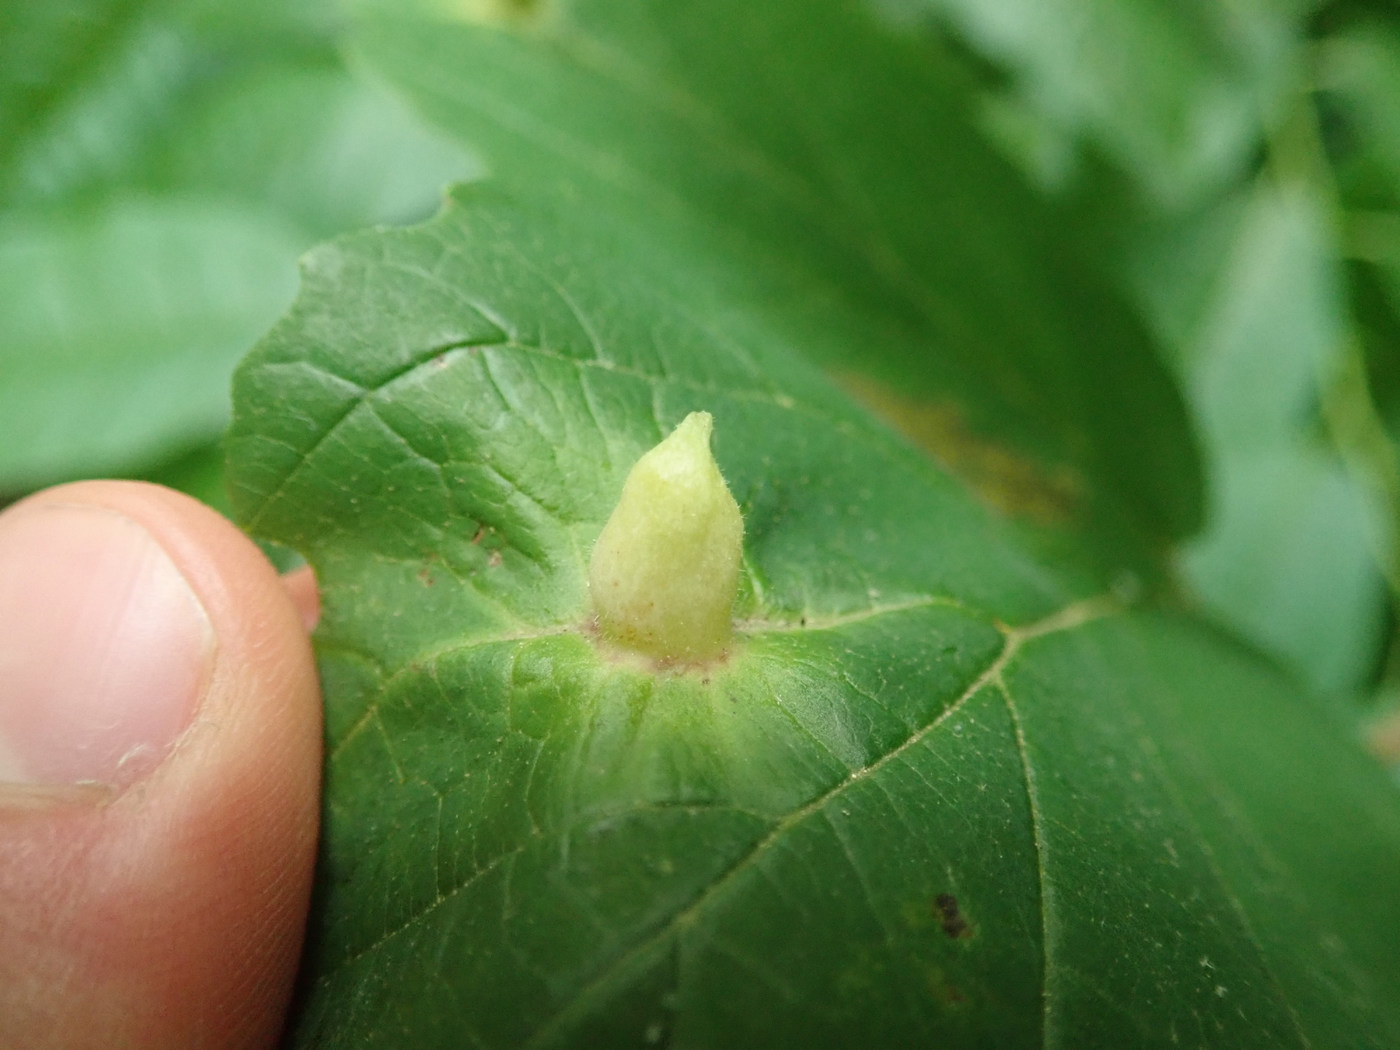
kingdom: Animalia
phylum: Arthropoda
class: Insecta
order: Hemiptera
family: Aphididae
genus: Hormaphis
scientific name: Hormaphis hamamelidis
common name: Witch-hazel cone gall aphid
